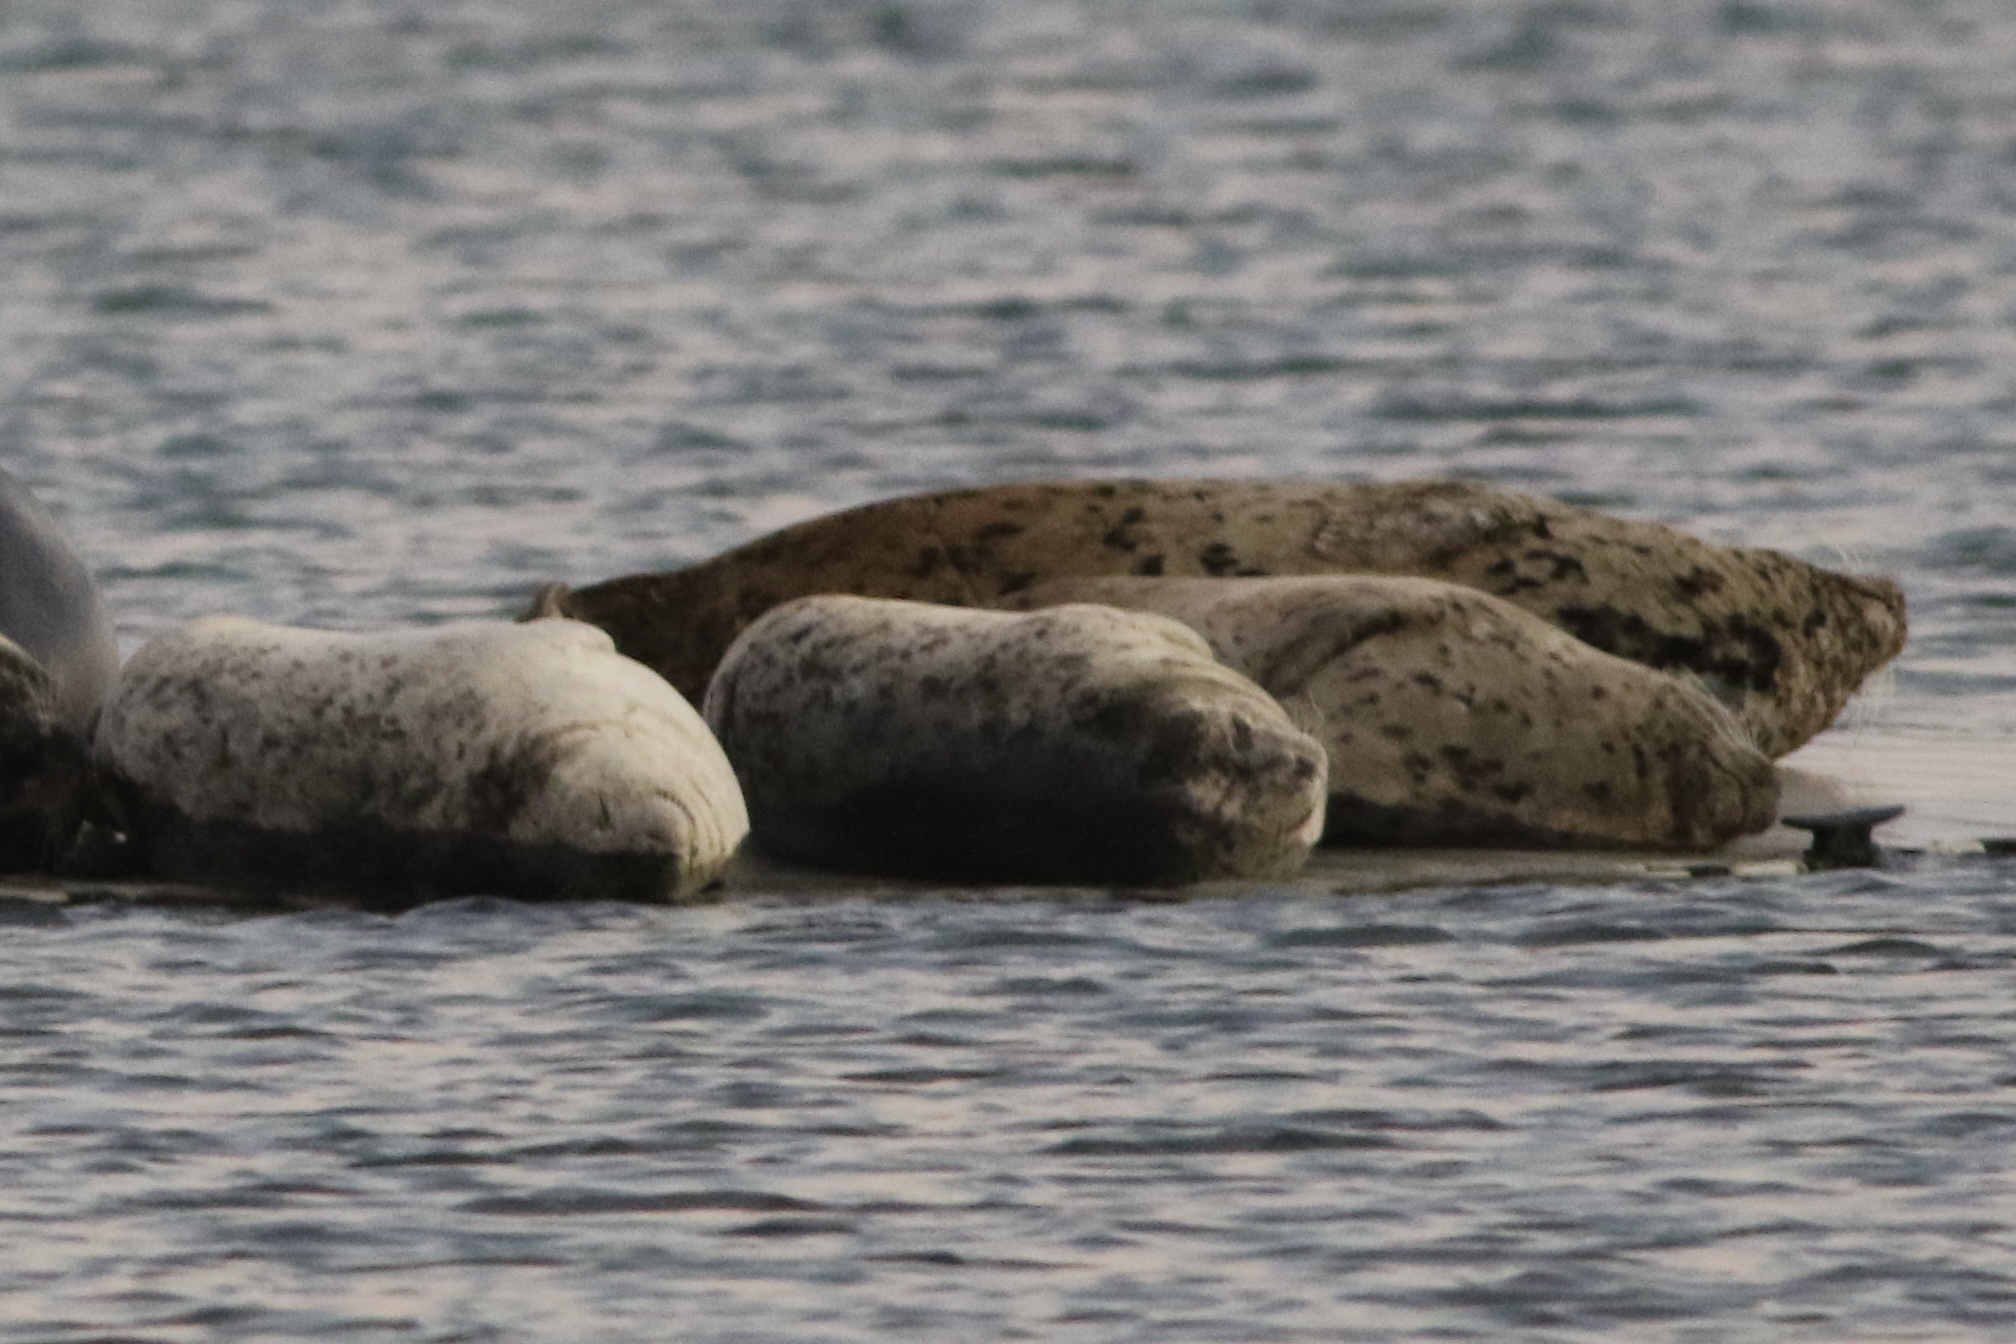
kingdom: Animalia
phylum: Chordata
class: Mammalia
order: Carnivora
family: Phocidae
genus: Phoca
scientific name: Phoca vitulina
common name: Harbor seal
